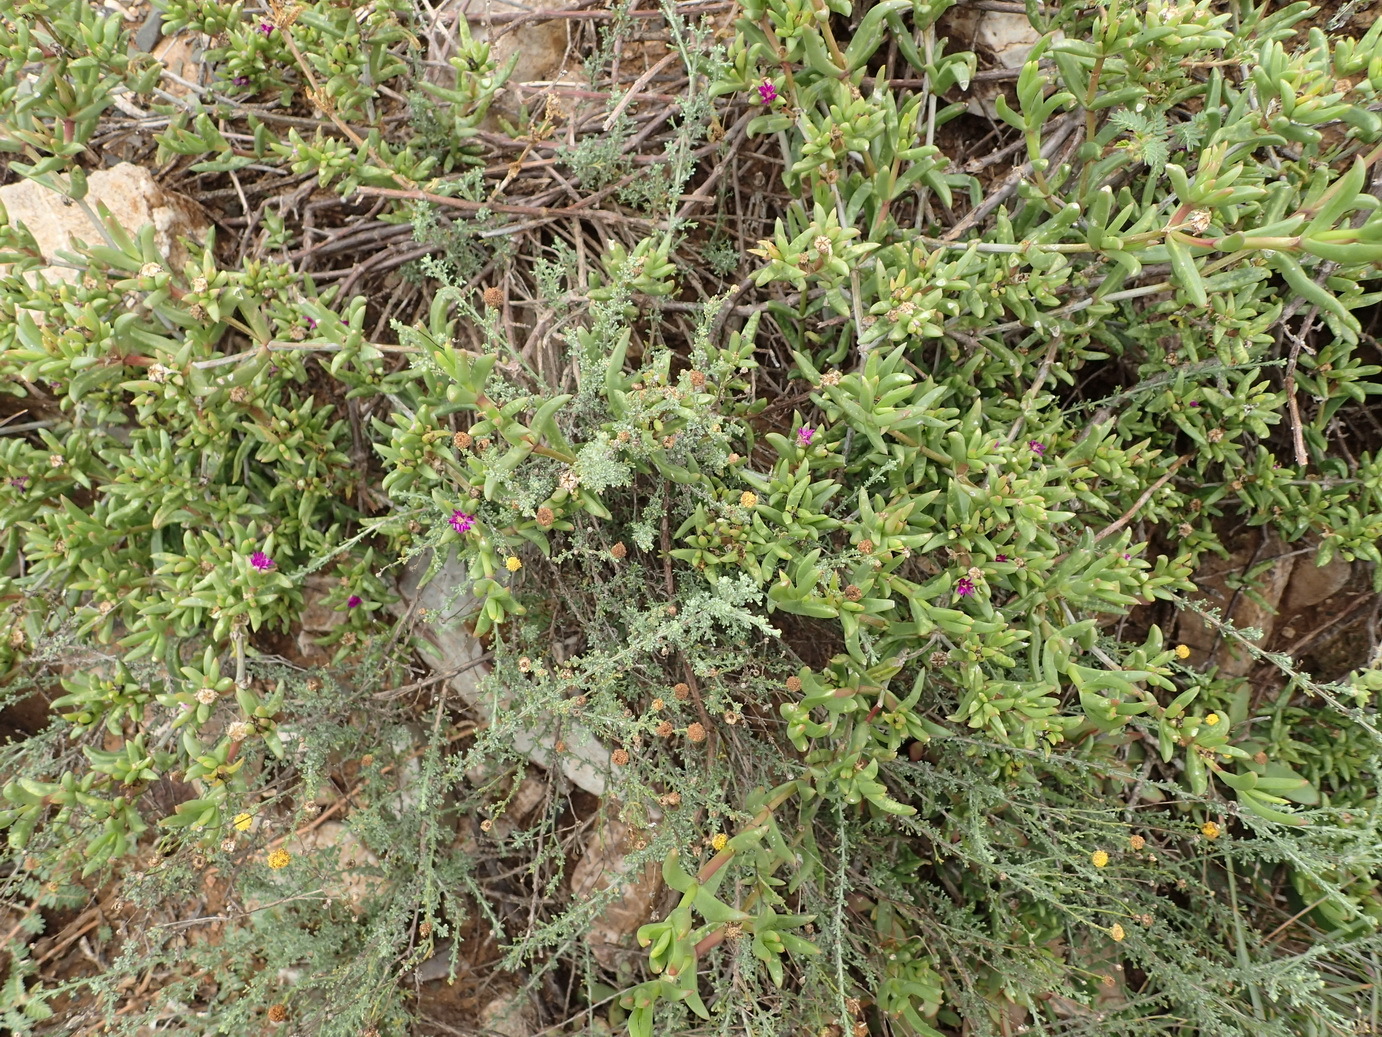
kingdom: Plantae
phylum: Tracheophyta
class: Magnoliopsida
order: Caryophyllales
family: Aizoaceae
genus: Delosperma
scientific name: Delosperma cloeteae
